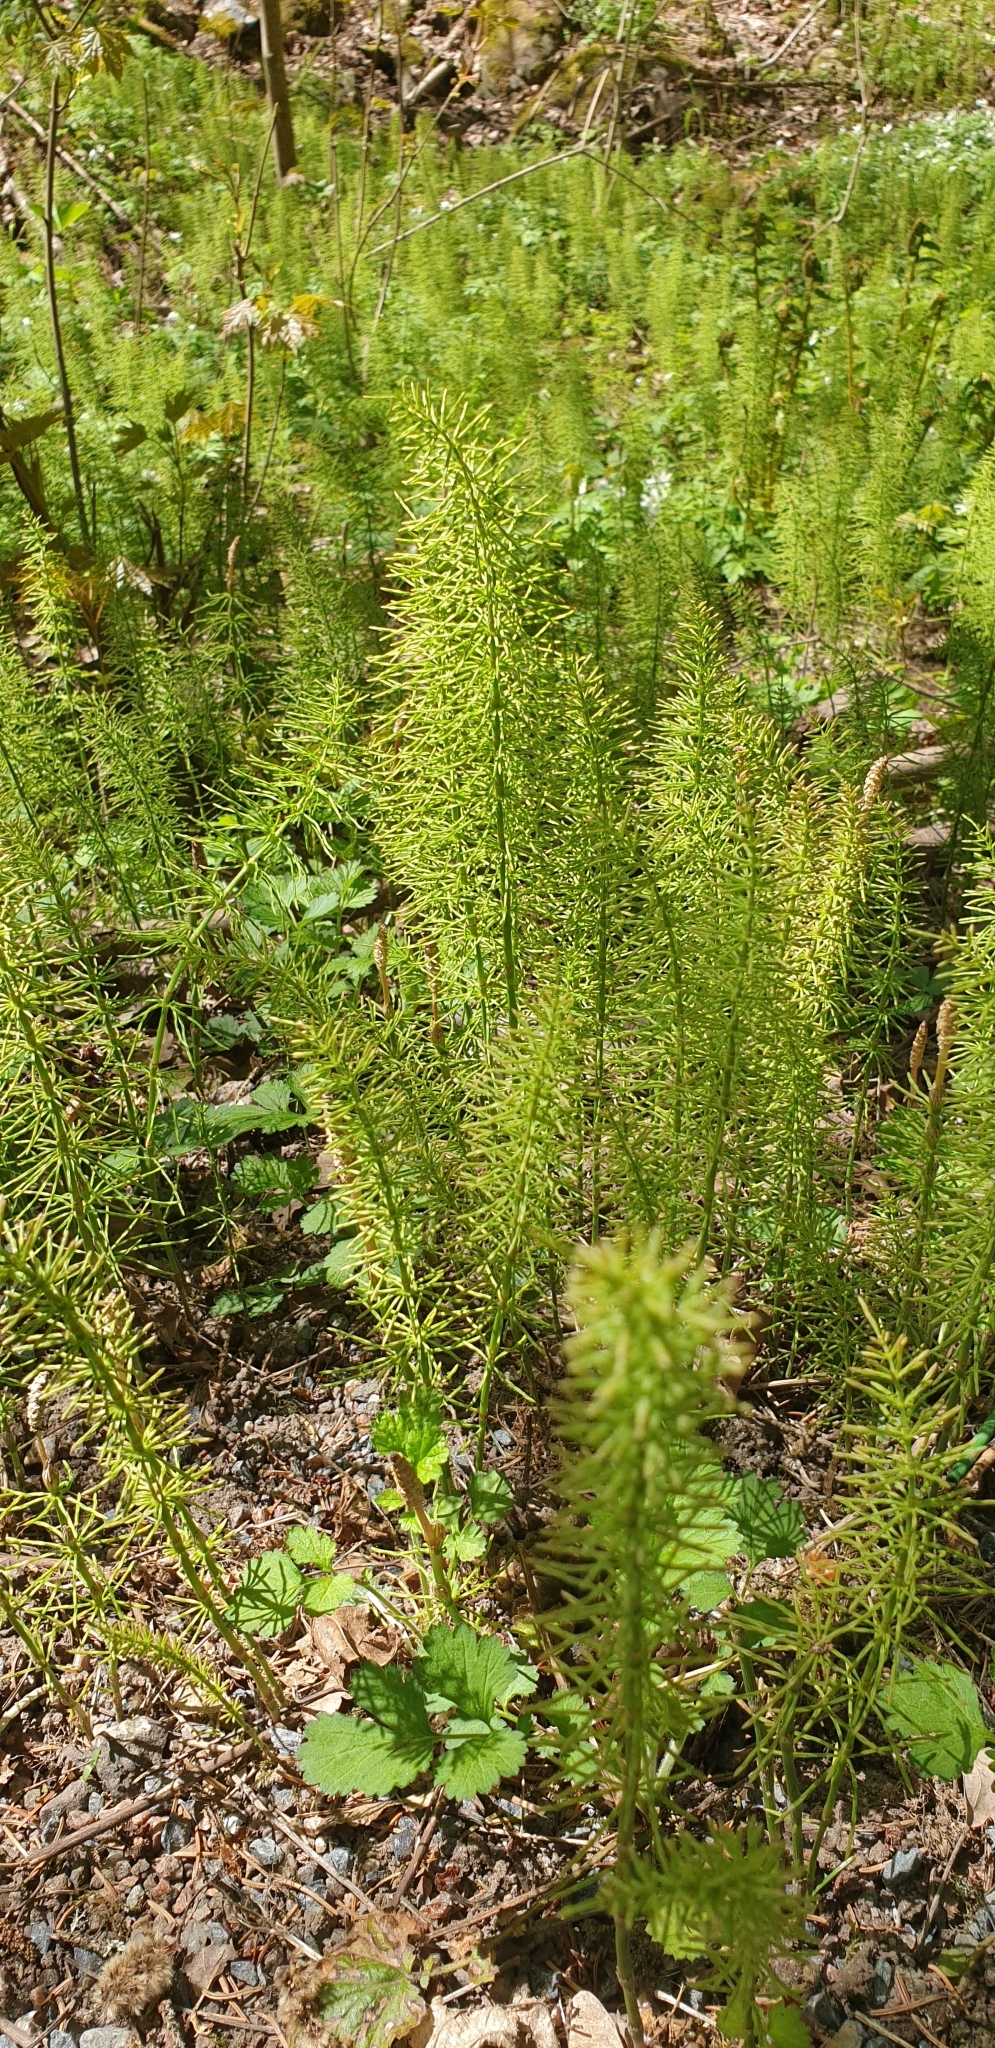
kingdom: Plantae
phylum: Tracheophyta
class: Polypodiopsida
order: Equisetales
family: Equisetaceae
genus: Equisetum
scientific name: Equisetum pratense
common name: Meadow horsetail
